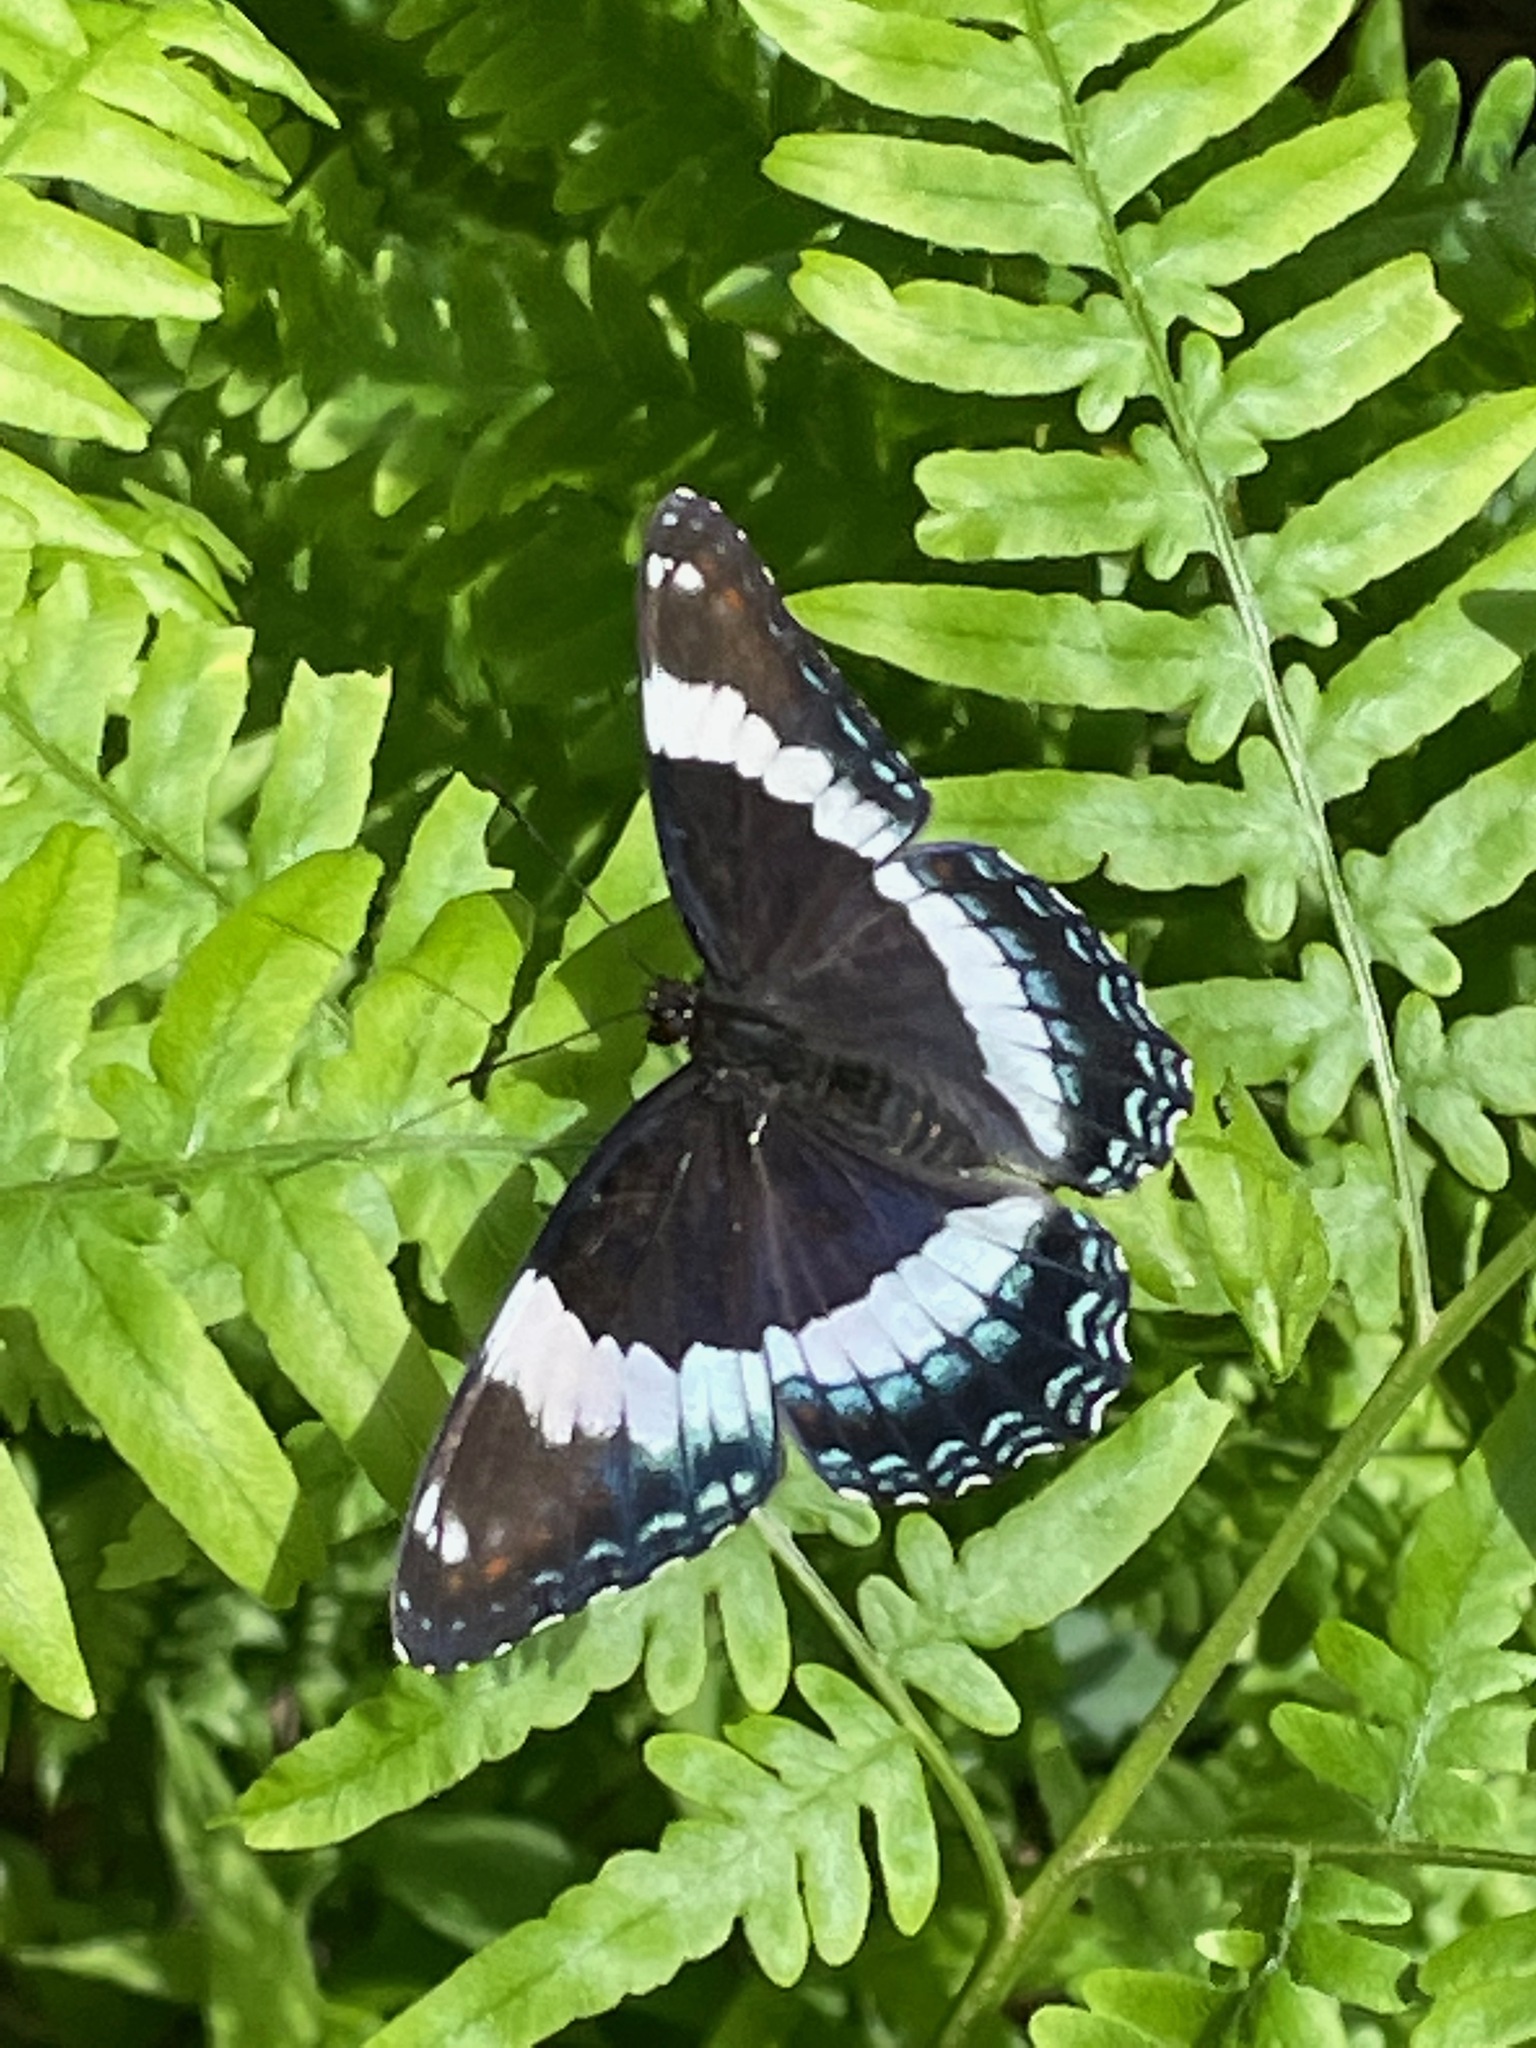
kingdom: Animalia
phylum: Arthropoda
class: Insecta
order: Lepidoptera
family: Nymphalidae
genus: Limenitis
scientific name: Limenitis arthemis
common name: Red-spotted admiral
